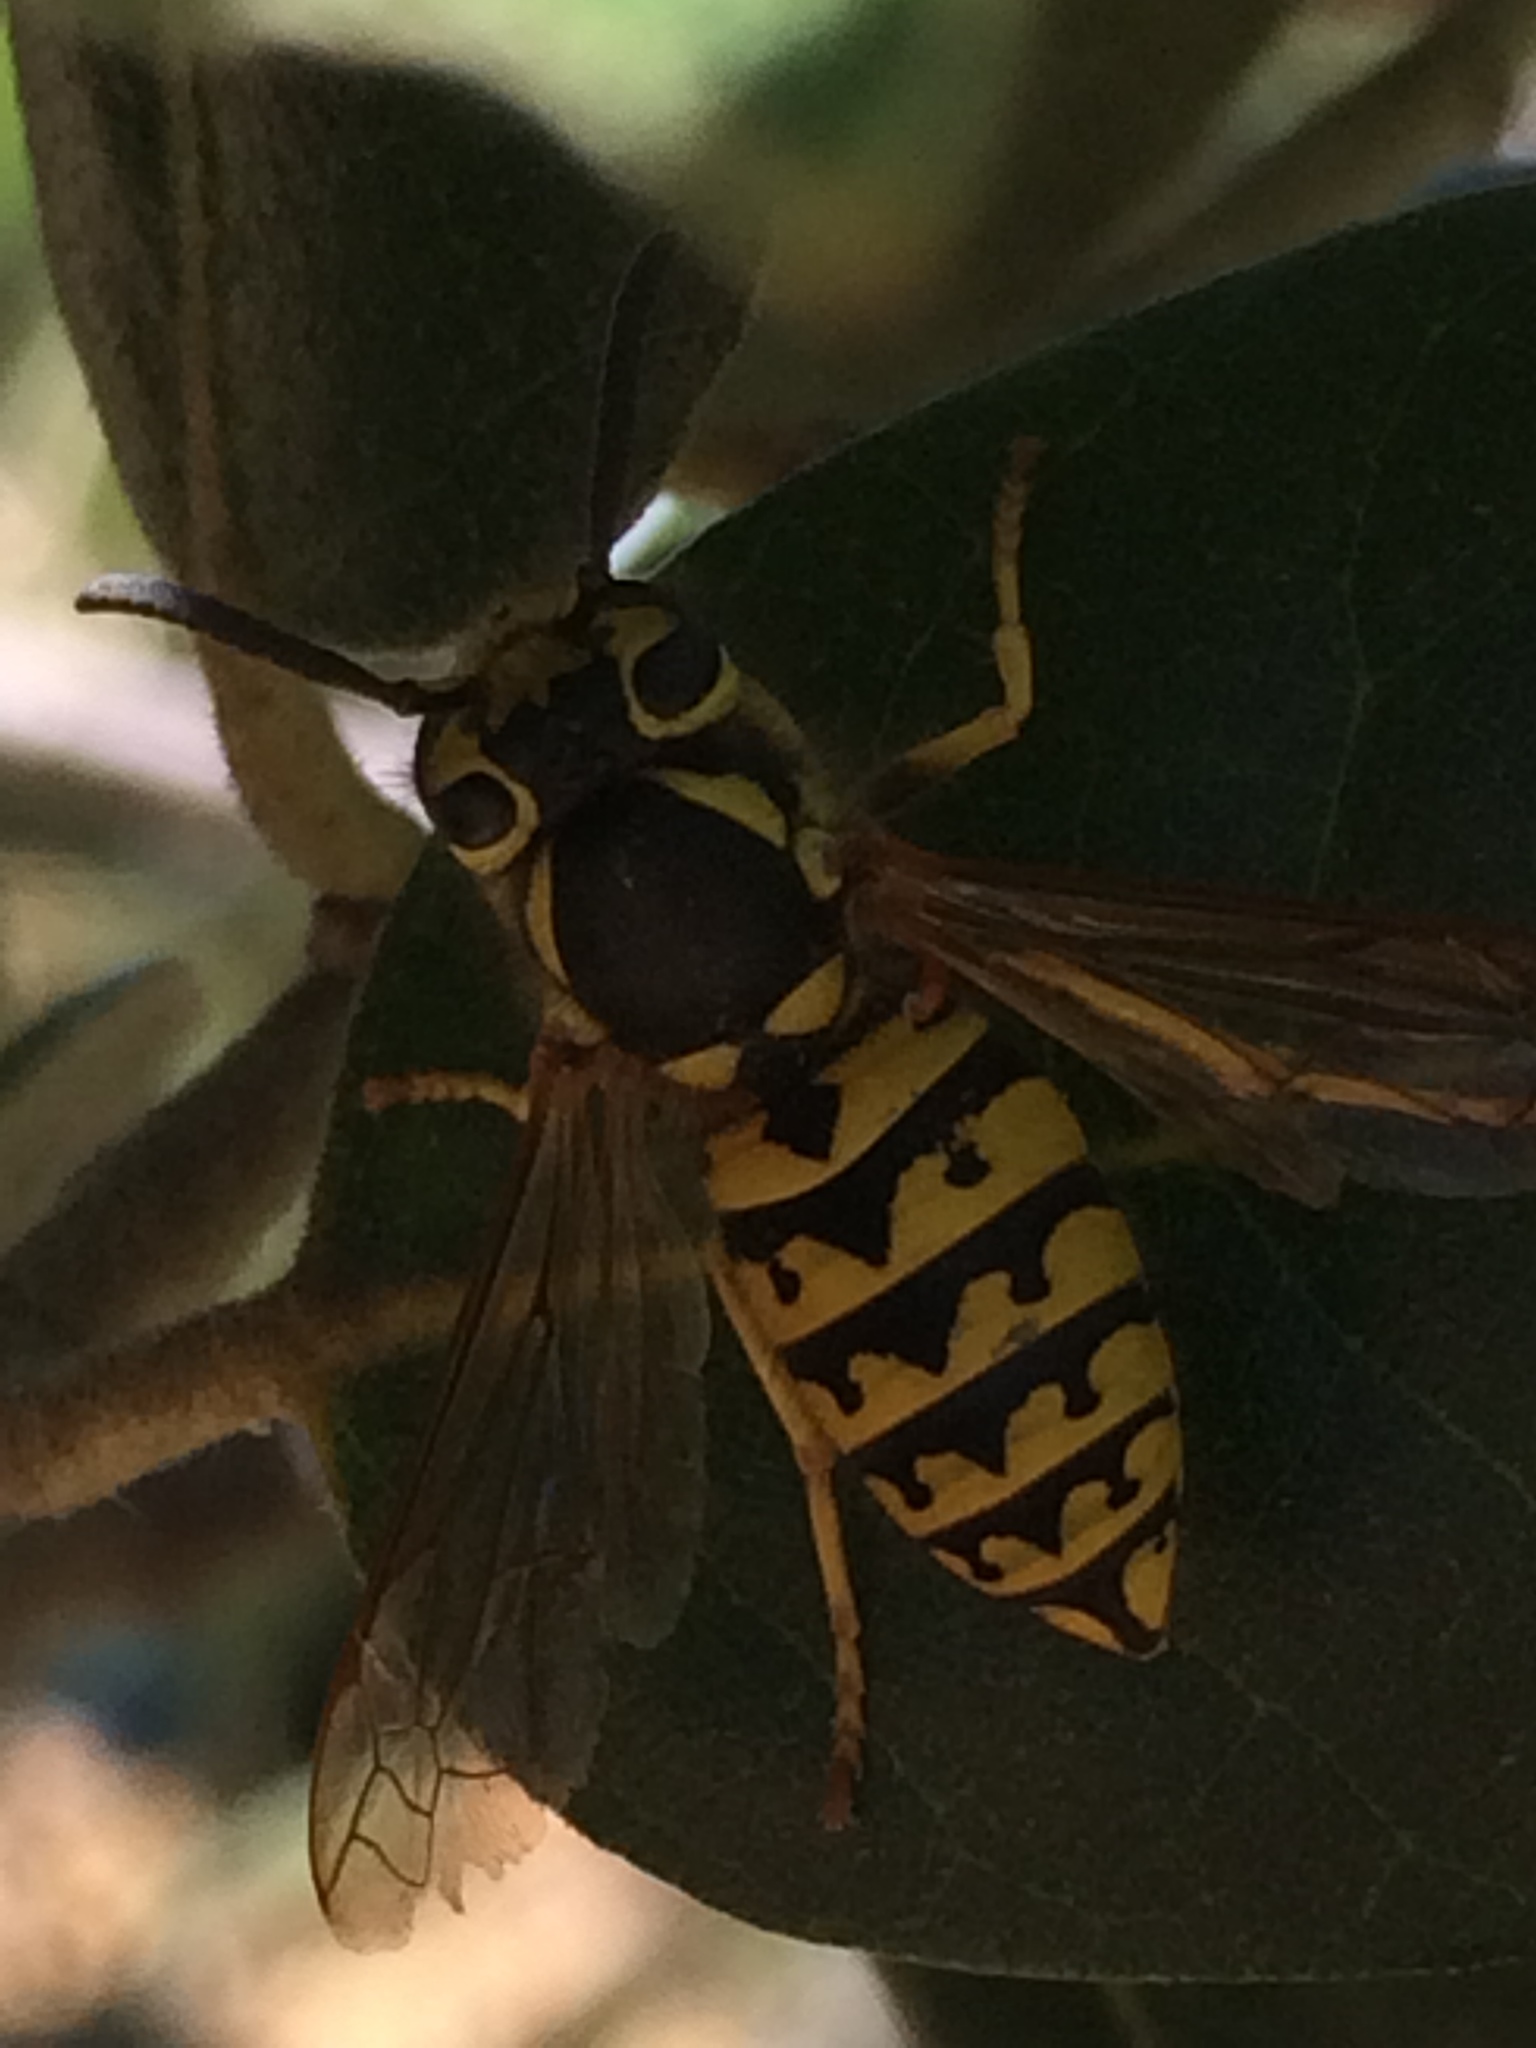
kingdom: Animalia
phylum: Arthropoda
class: Insecta
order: Hymenoptera
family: Vespidae
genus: Vespula
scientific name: Vespula pensylvanica
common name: Western yellowjacket
